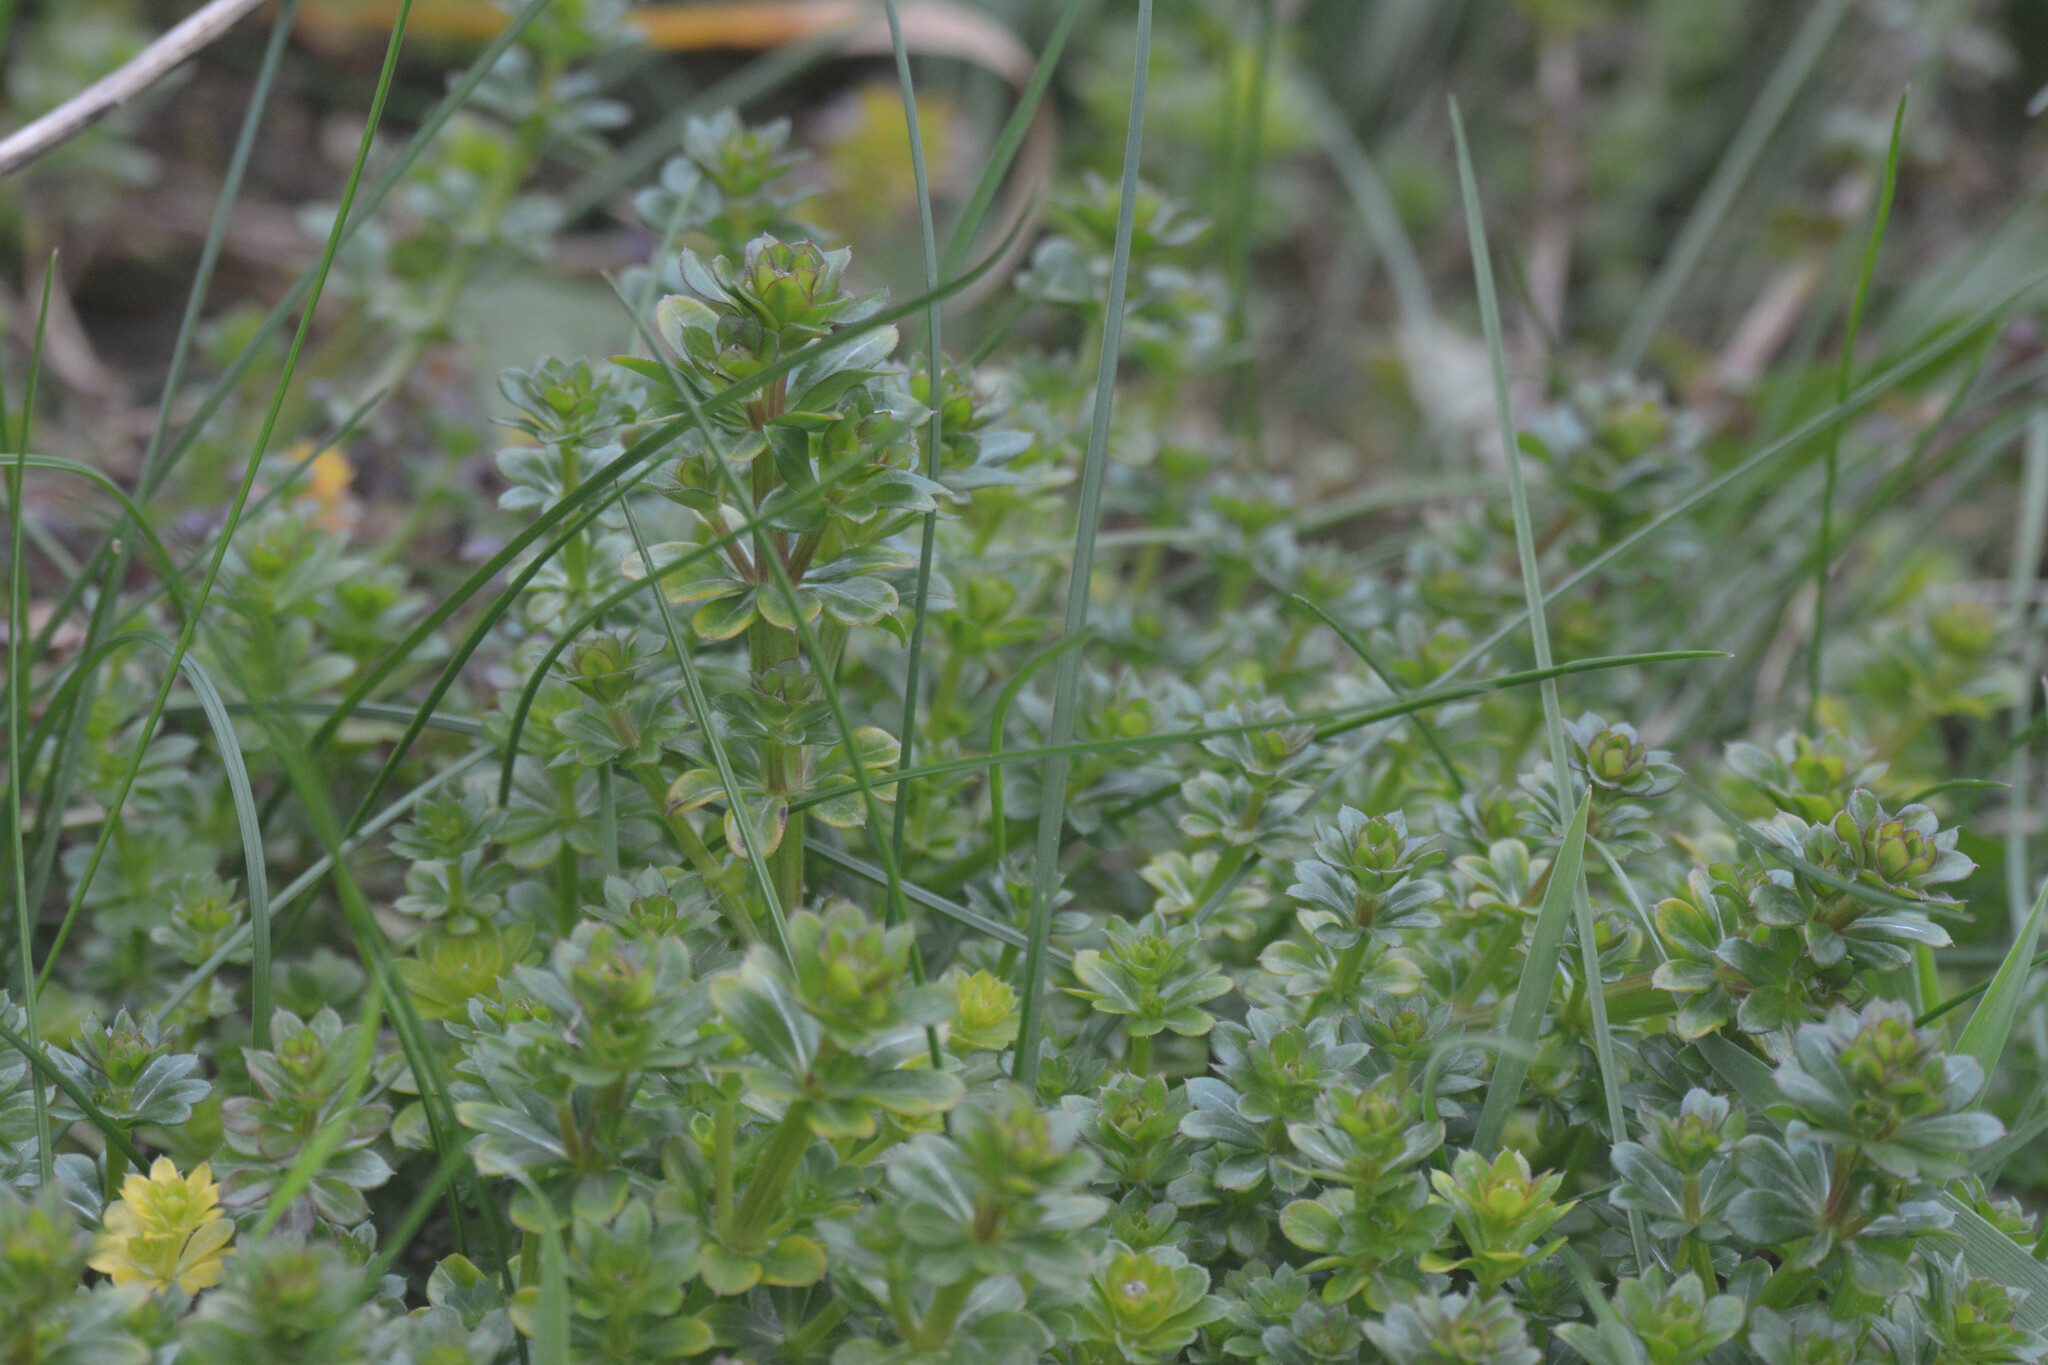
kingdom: Plantae
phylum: Tracheophyta
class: Magnoliopsida
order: Gentianales
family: Rubiaceae
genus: Galium
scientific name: Galium album
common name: White bedstraw
